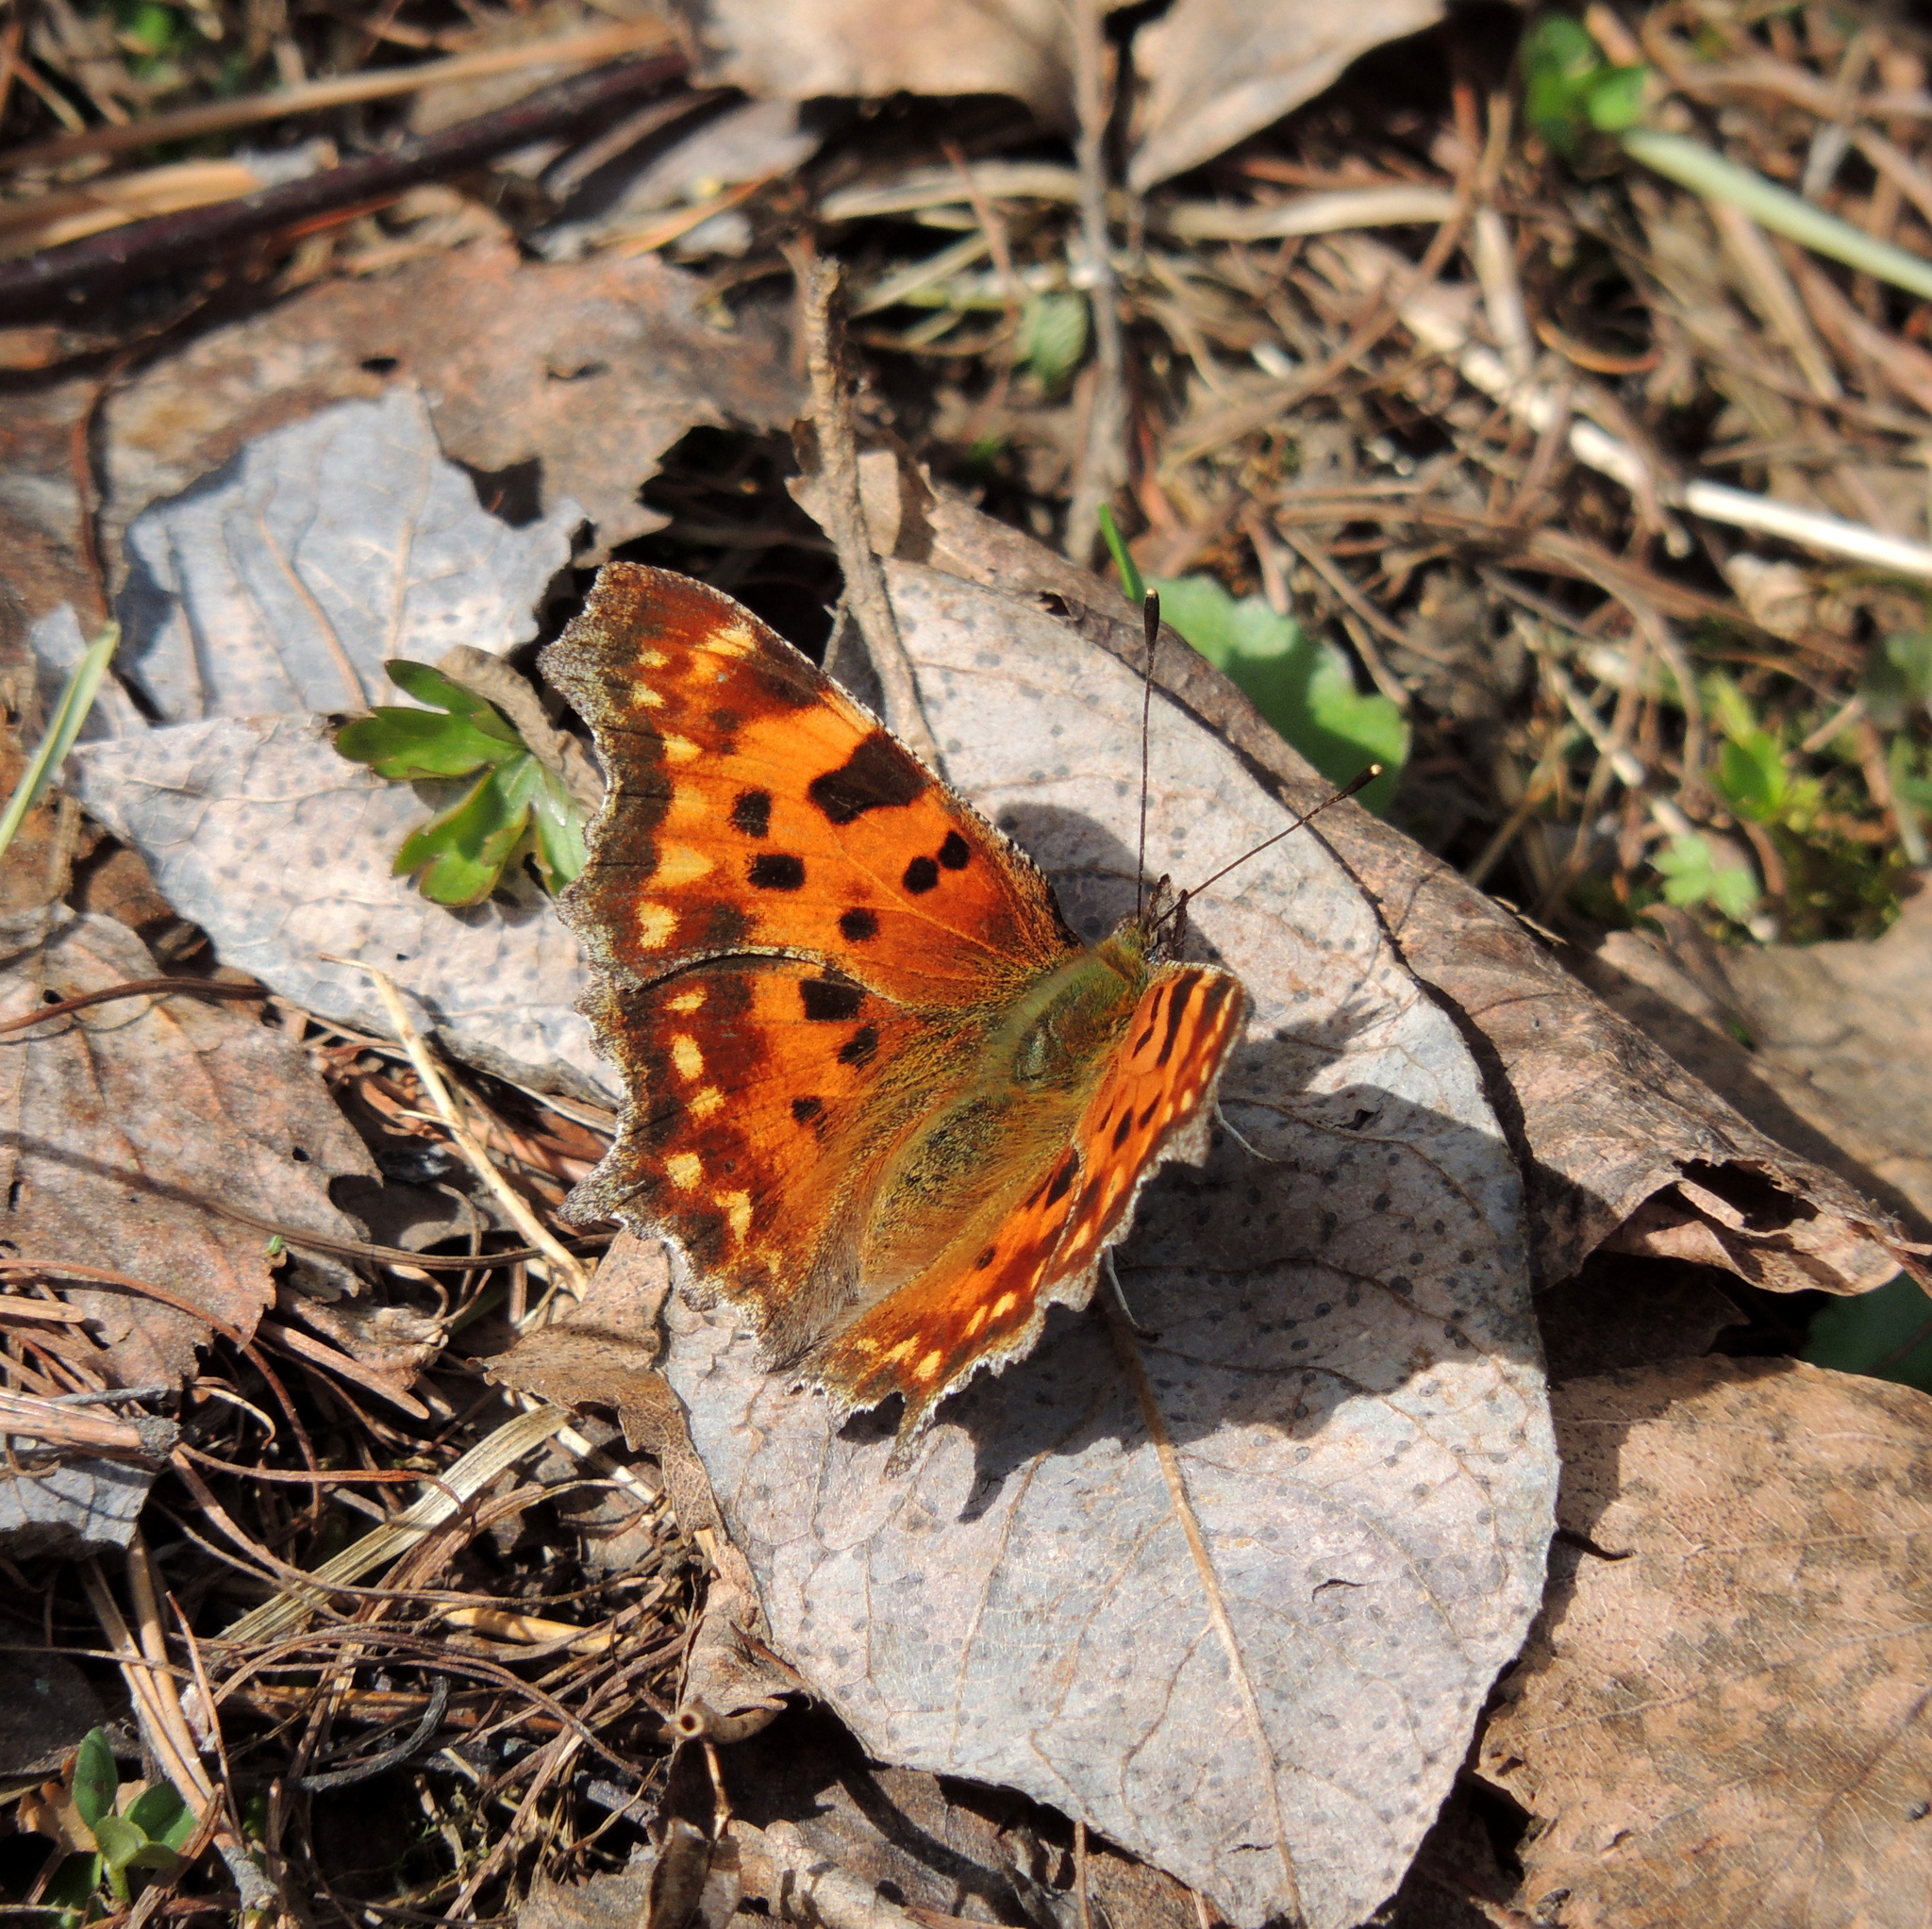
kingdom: Animalia
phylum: Arthropoda
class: Insecta
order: Lepidoptera
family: Nymphalidae
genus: Polygonia
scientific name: Polygonia c-album
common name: Comma
